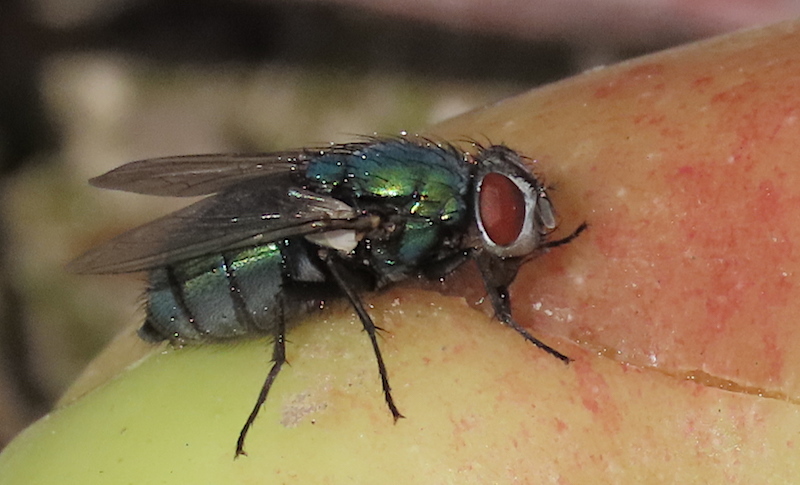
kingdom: Animalia
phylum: Arthropoda
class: Insecta
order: Diptera
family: Calliphoridae
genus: Lucilia
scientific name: Lucilia sericata
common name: Blow fly
